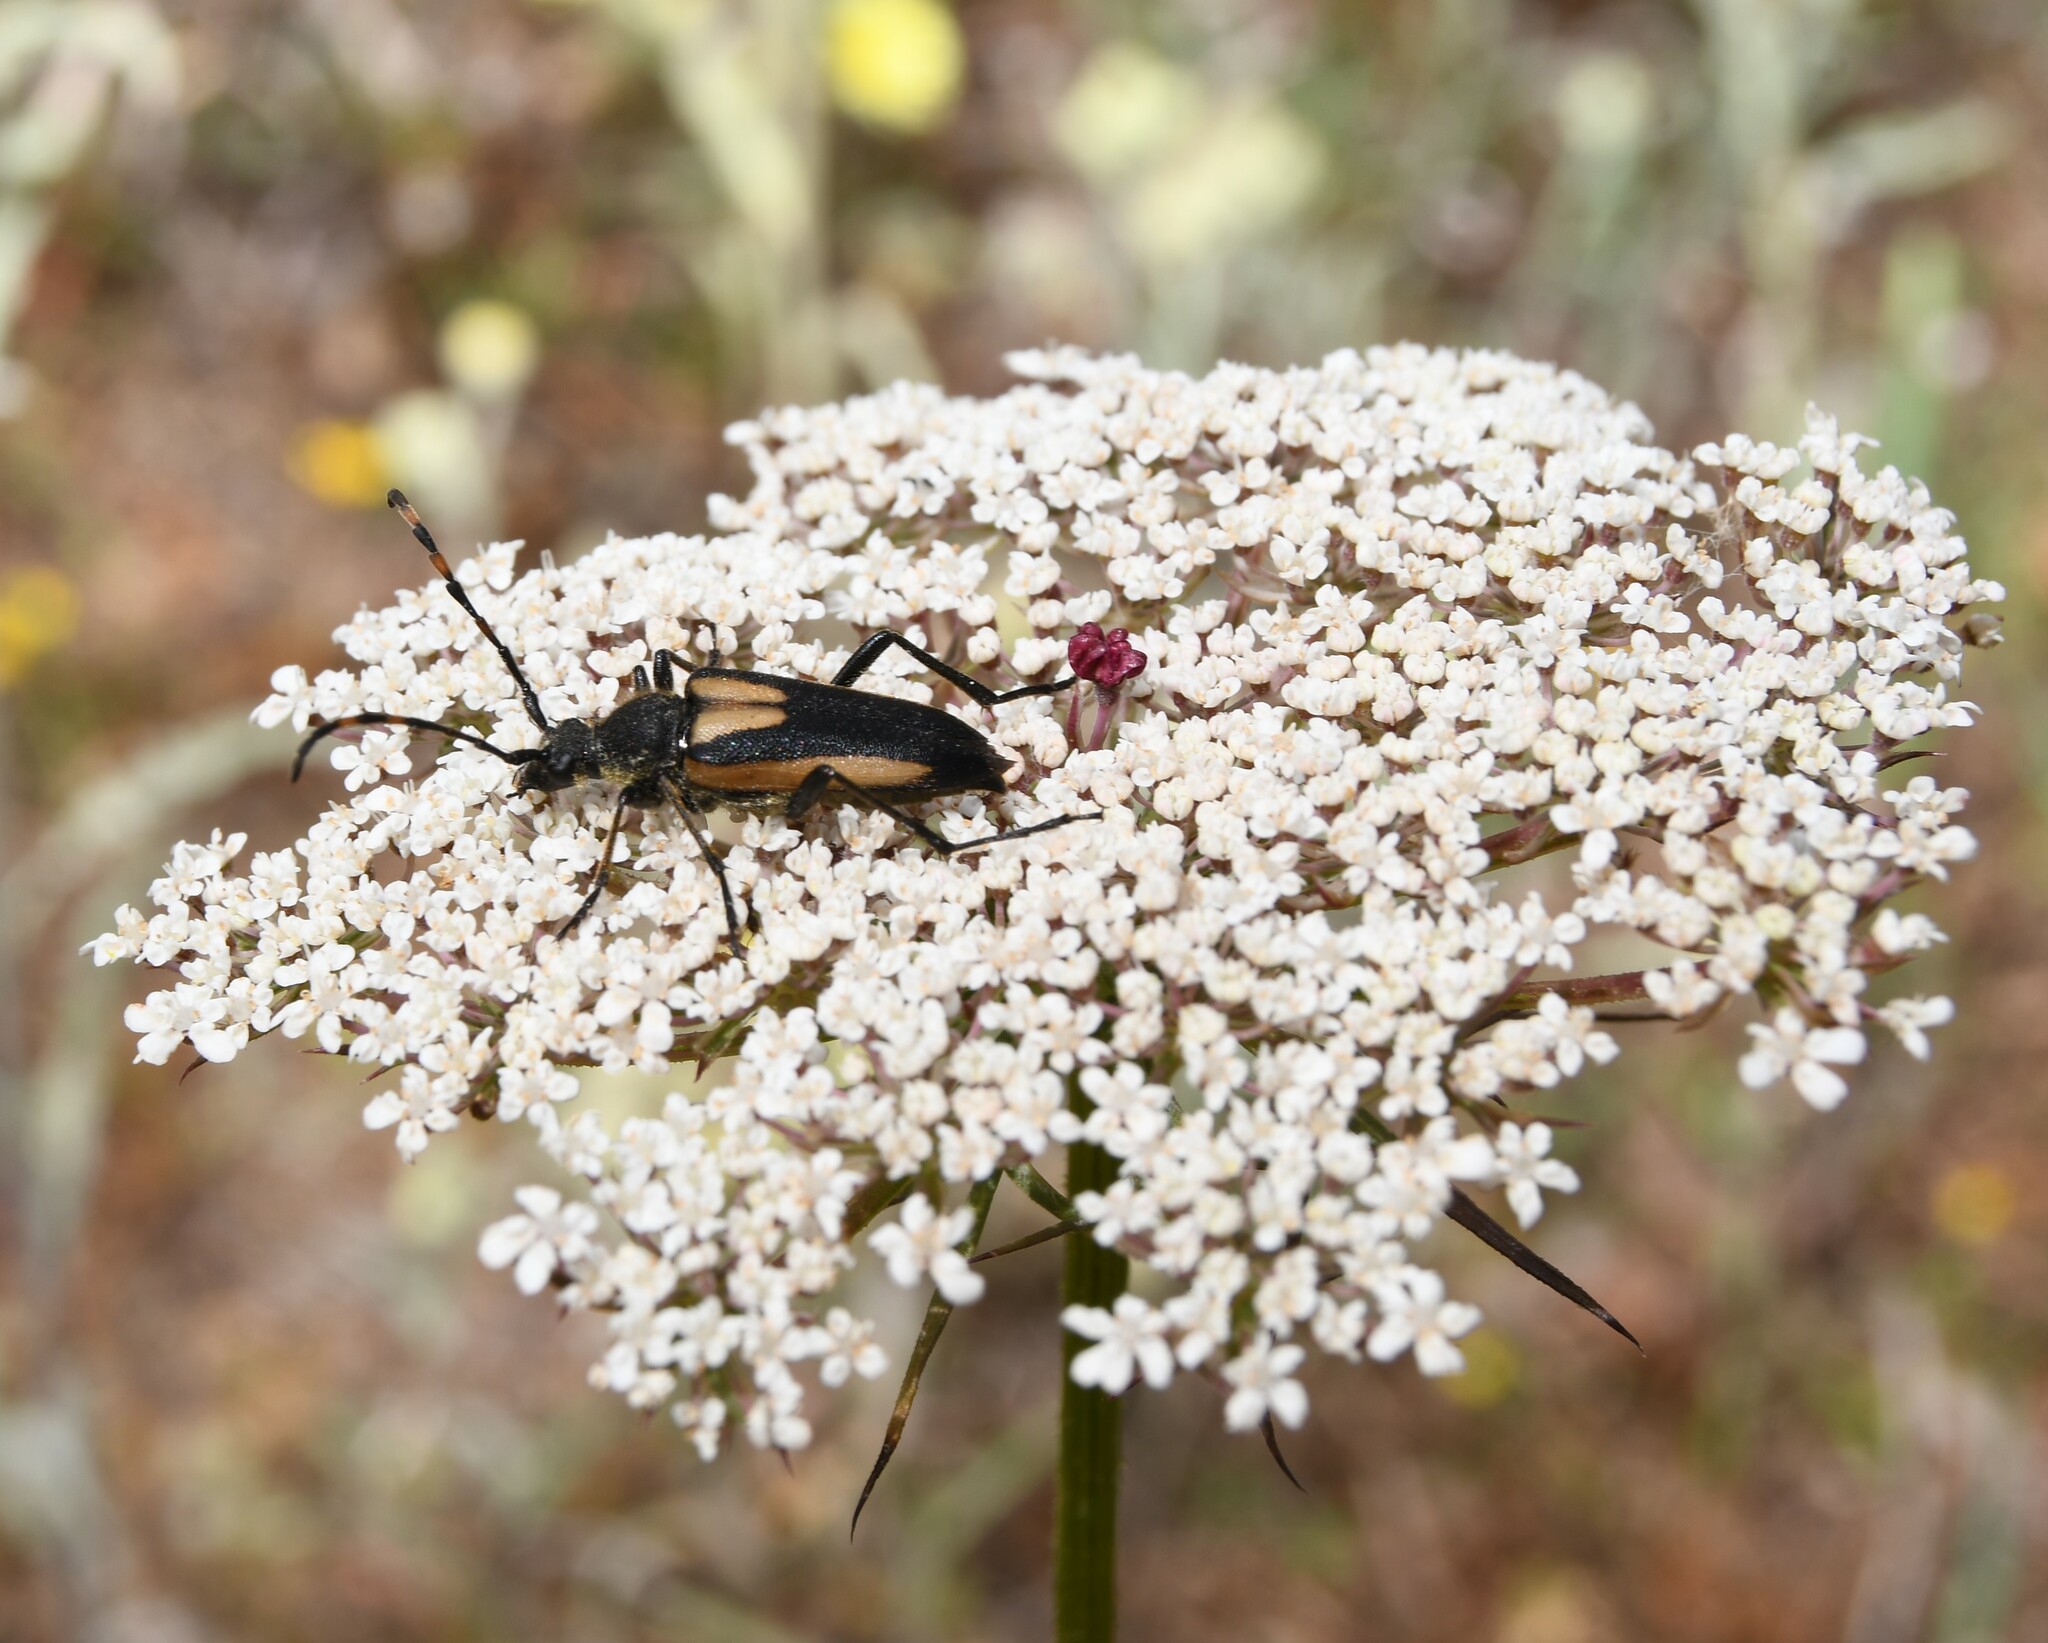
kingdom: Animalia
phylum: Arthropoda
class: Insecta
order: Coleoptera
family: Cerambycidae
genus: Stictoleptura
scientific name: Stictoleptura stragulata
